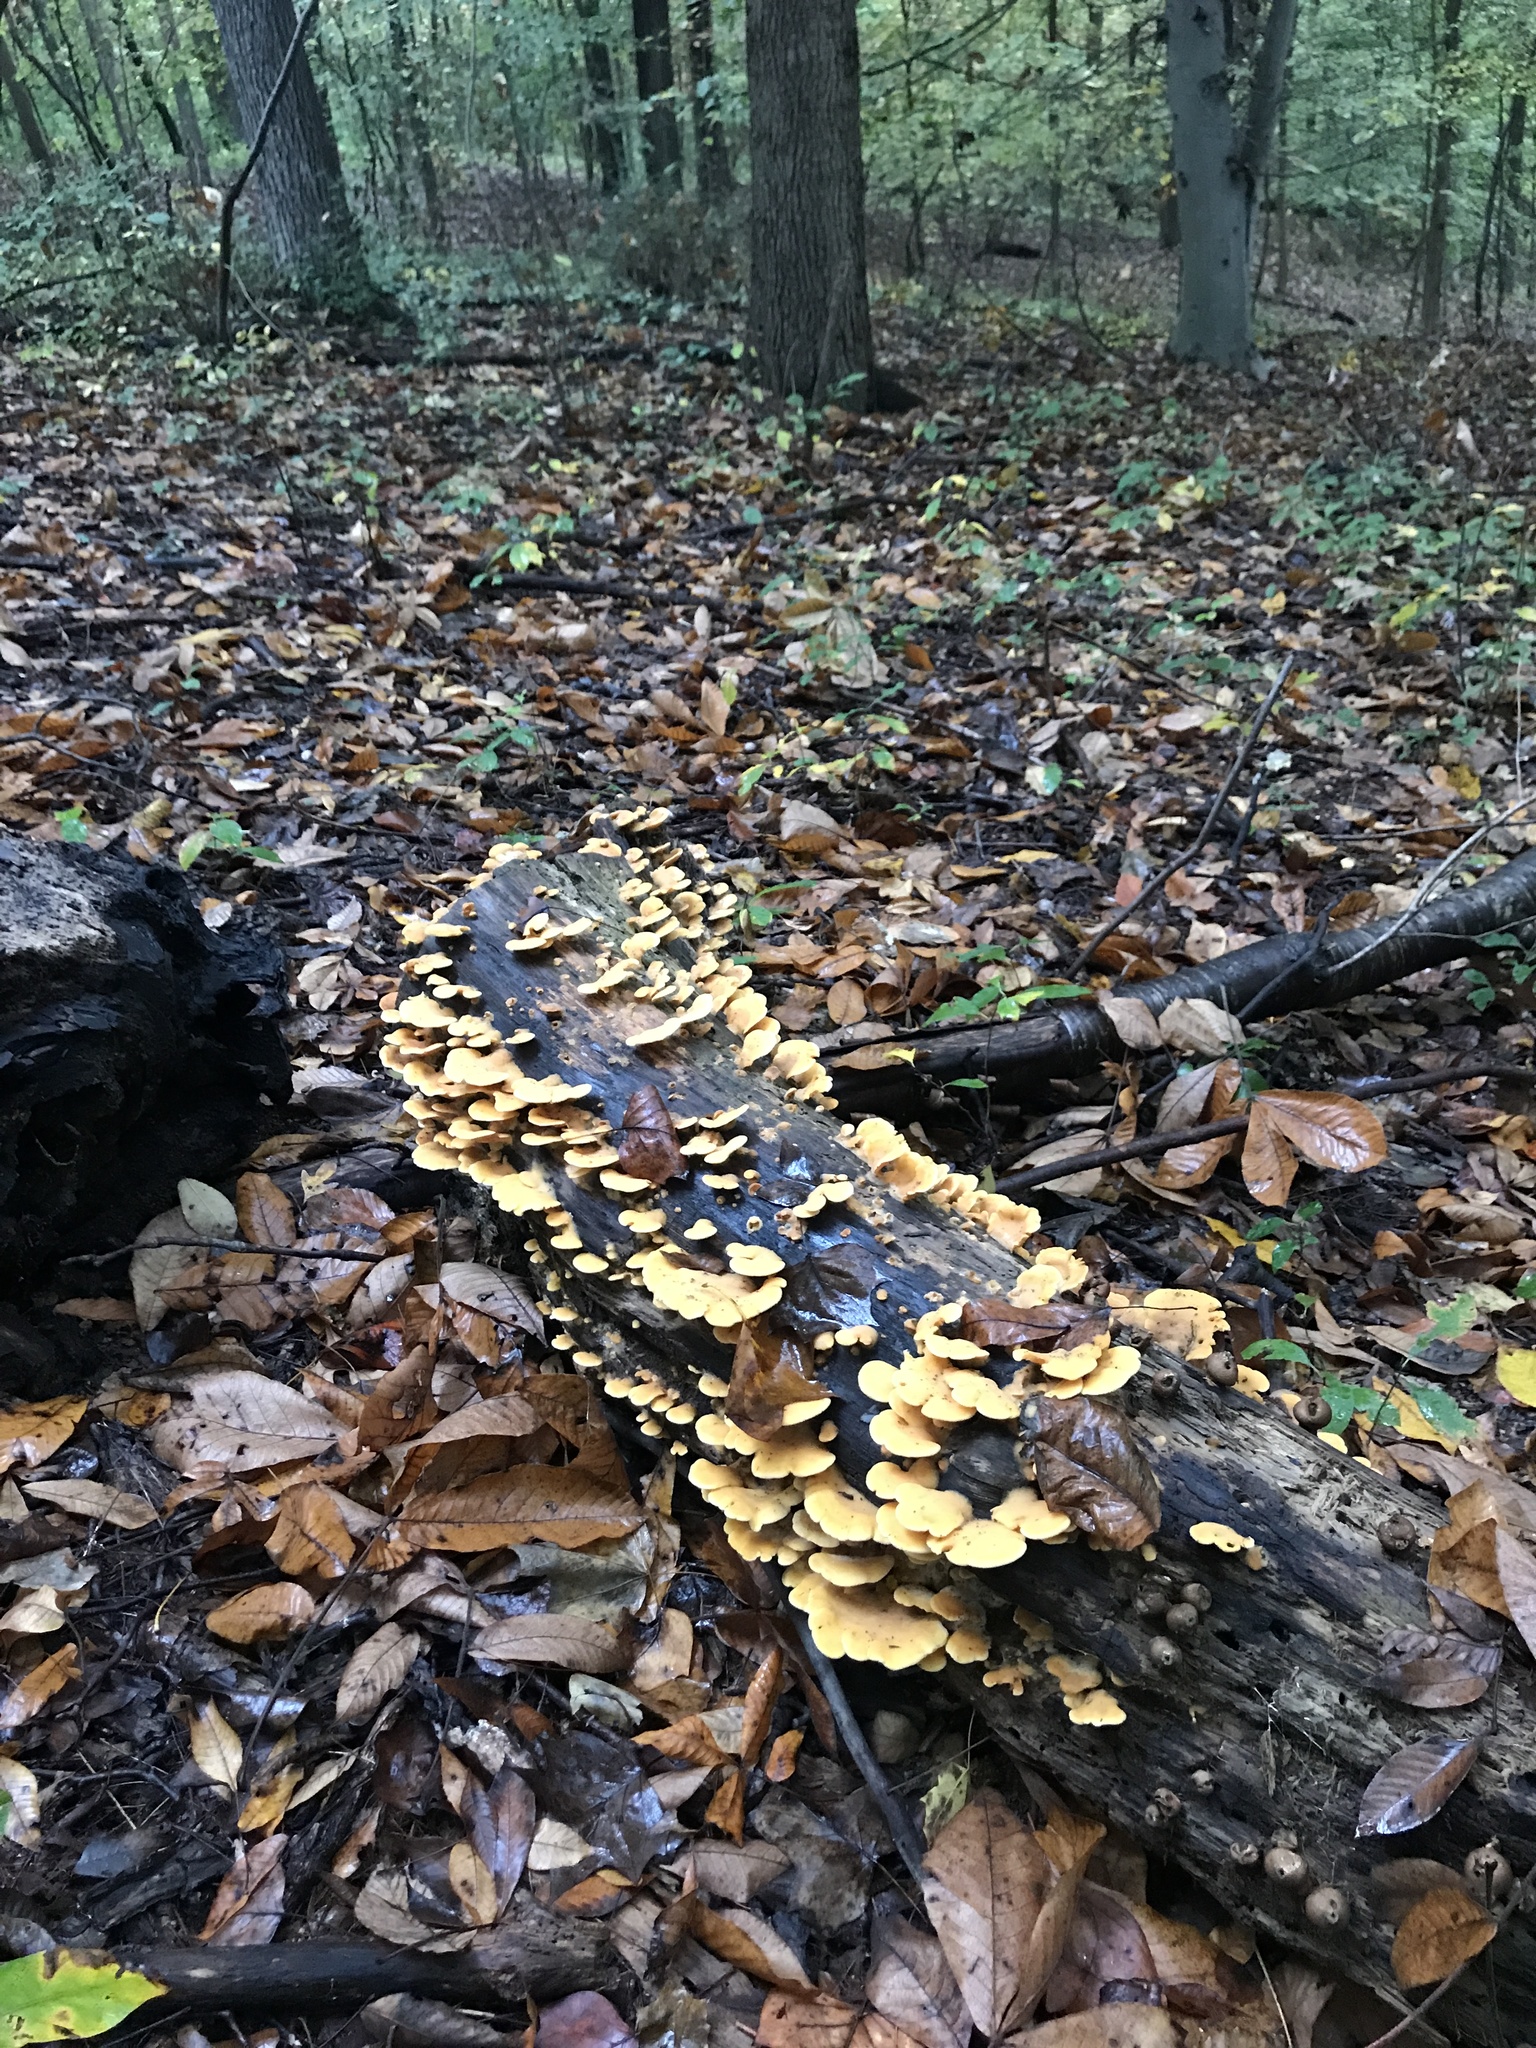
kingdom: Fungi
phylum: Basidiomycota
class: Agaricomycetes
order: Agaricales
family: Phyllotopsidaceae
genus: Phyllotopsis
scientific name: Phyllotopsis nidulans
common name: Orange mock oyster
